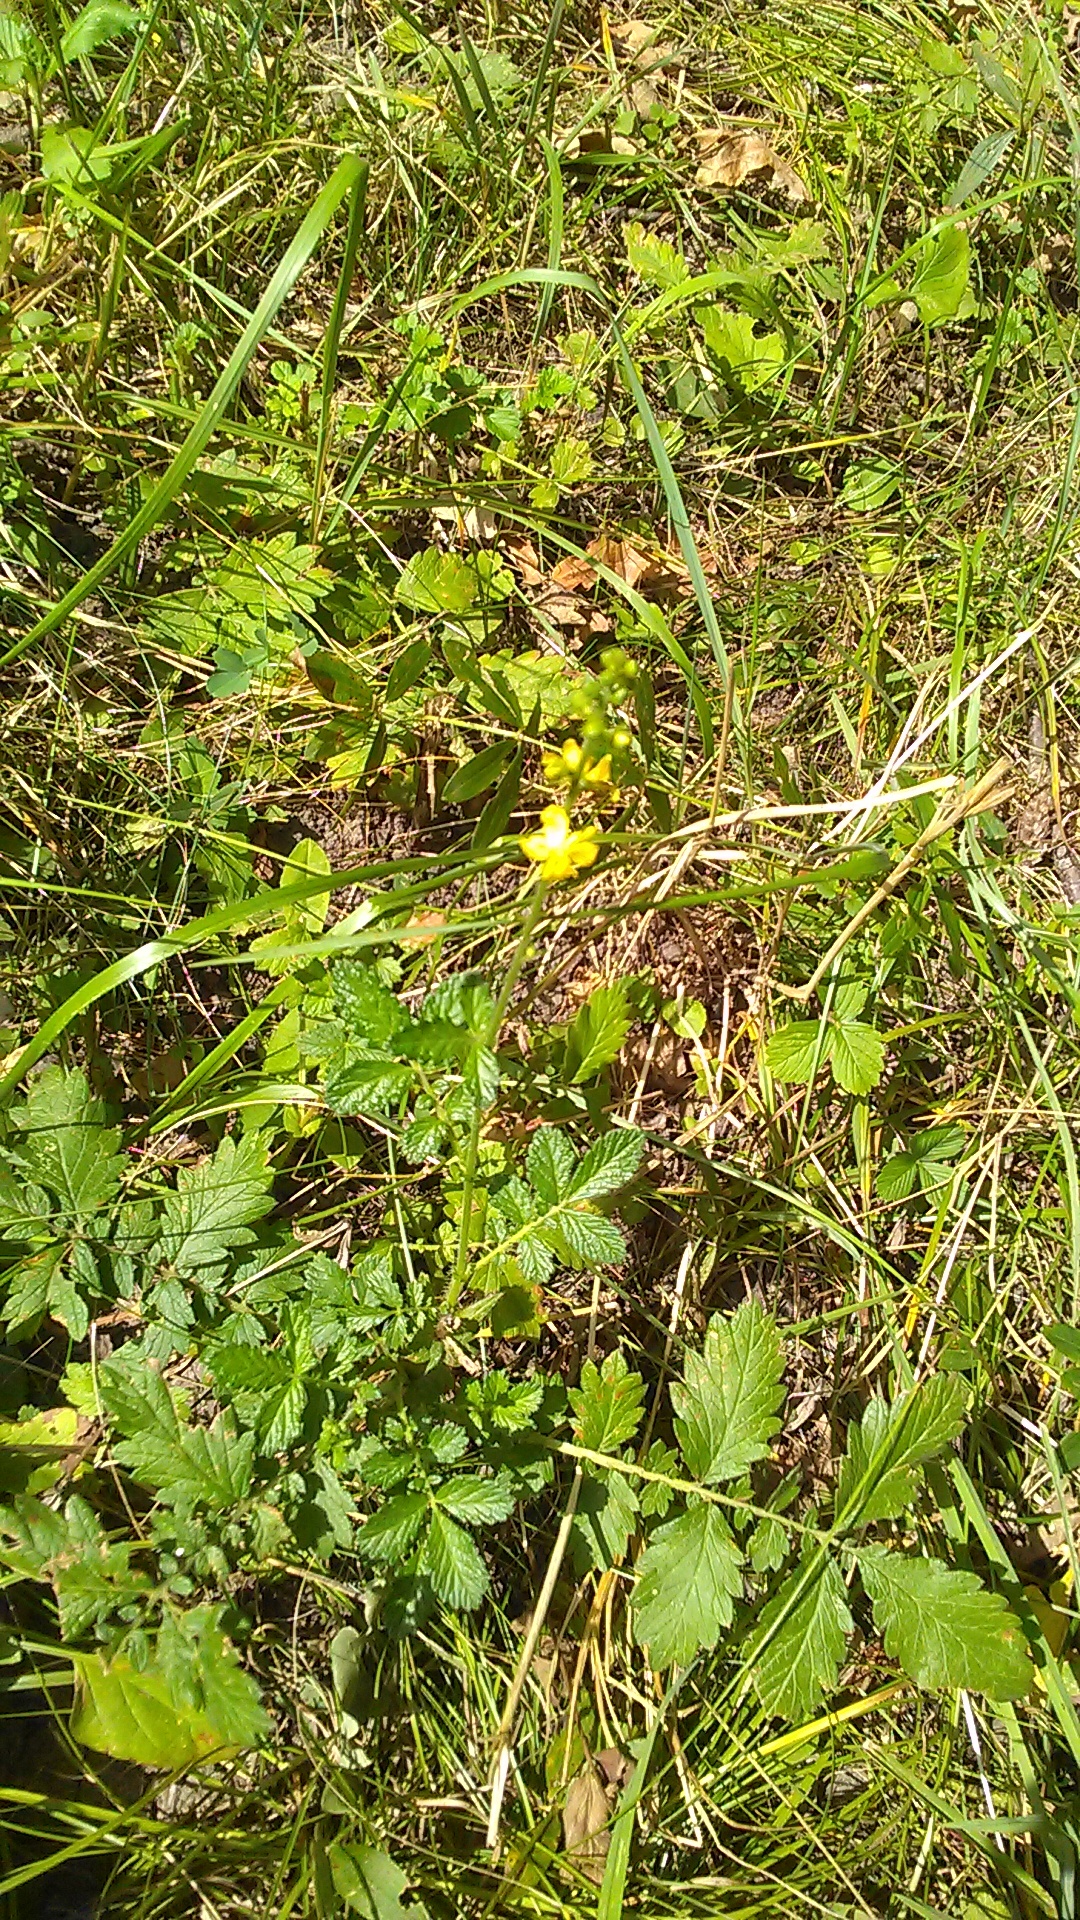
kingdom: Plantae
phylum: Tracheophyta
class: Magnoliopsida
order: Rosales
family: Rosaceae
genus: Agrimonia
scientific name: Agrimonia eupatoria
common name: Agrimony
